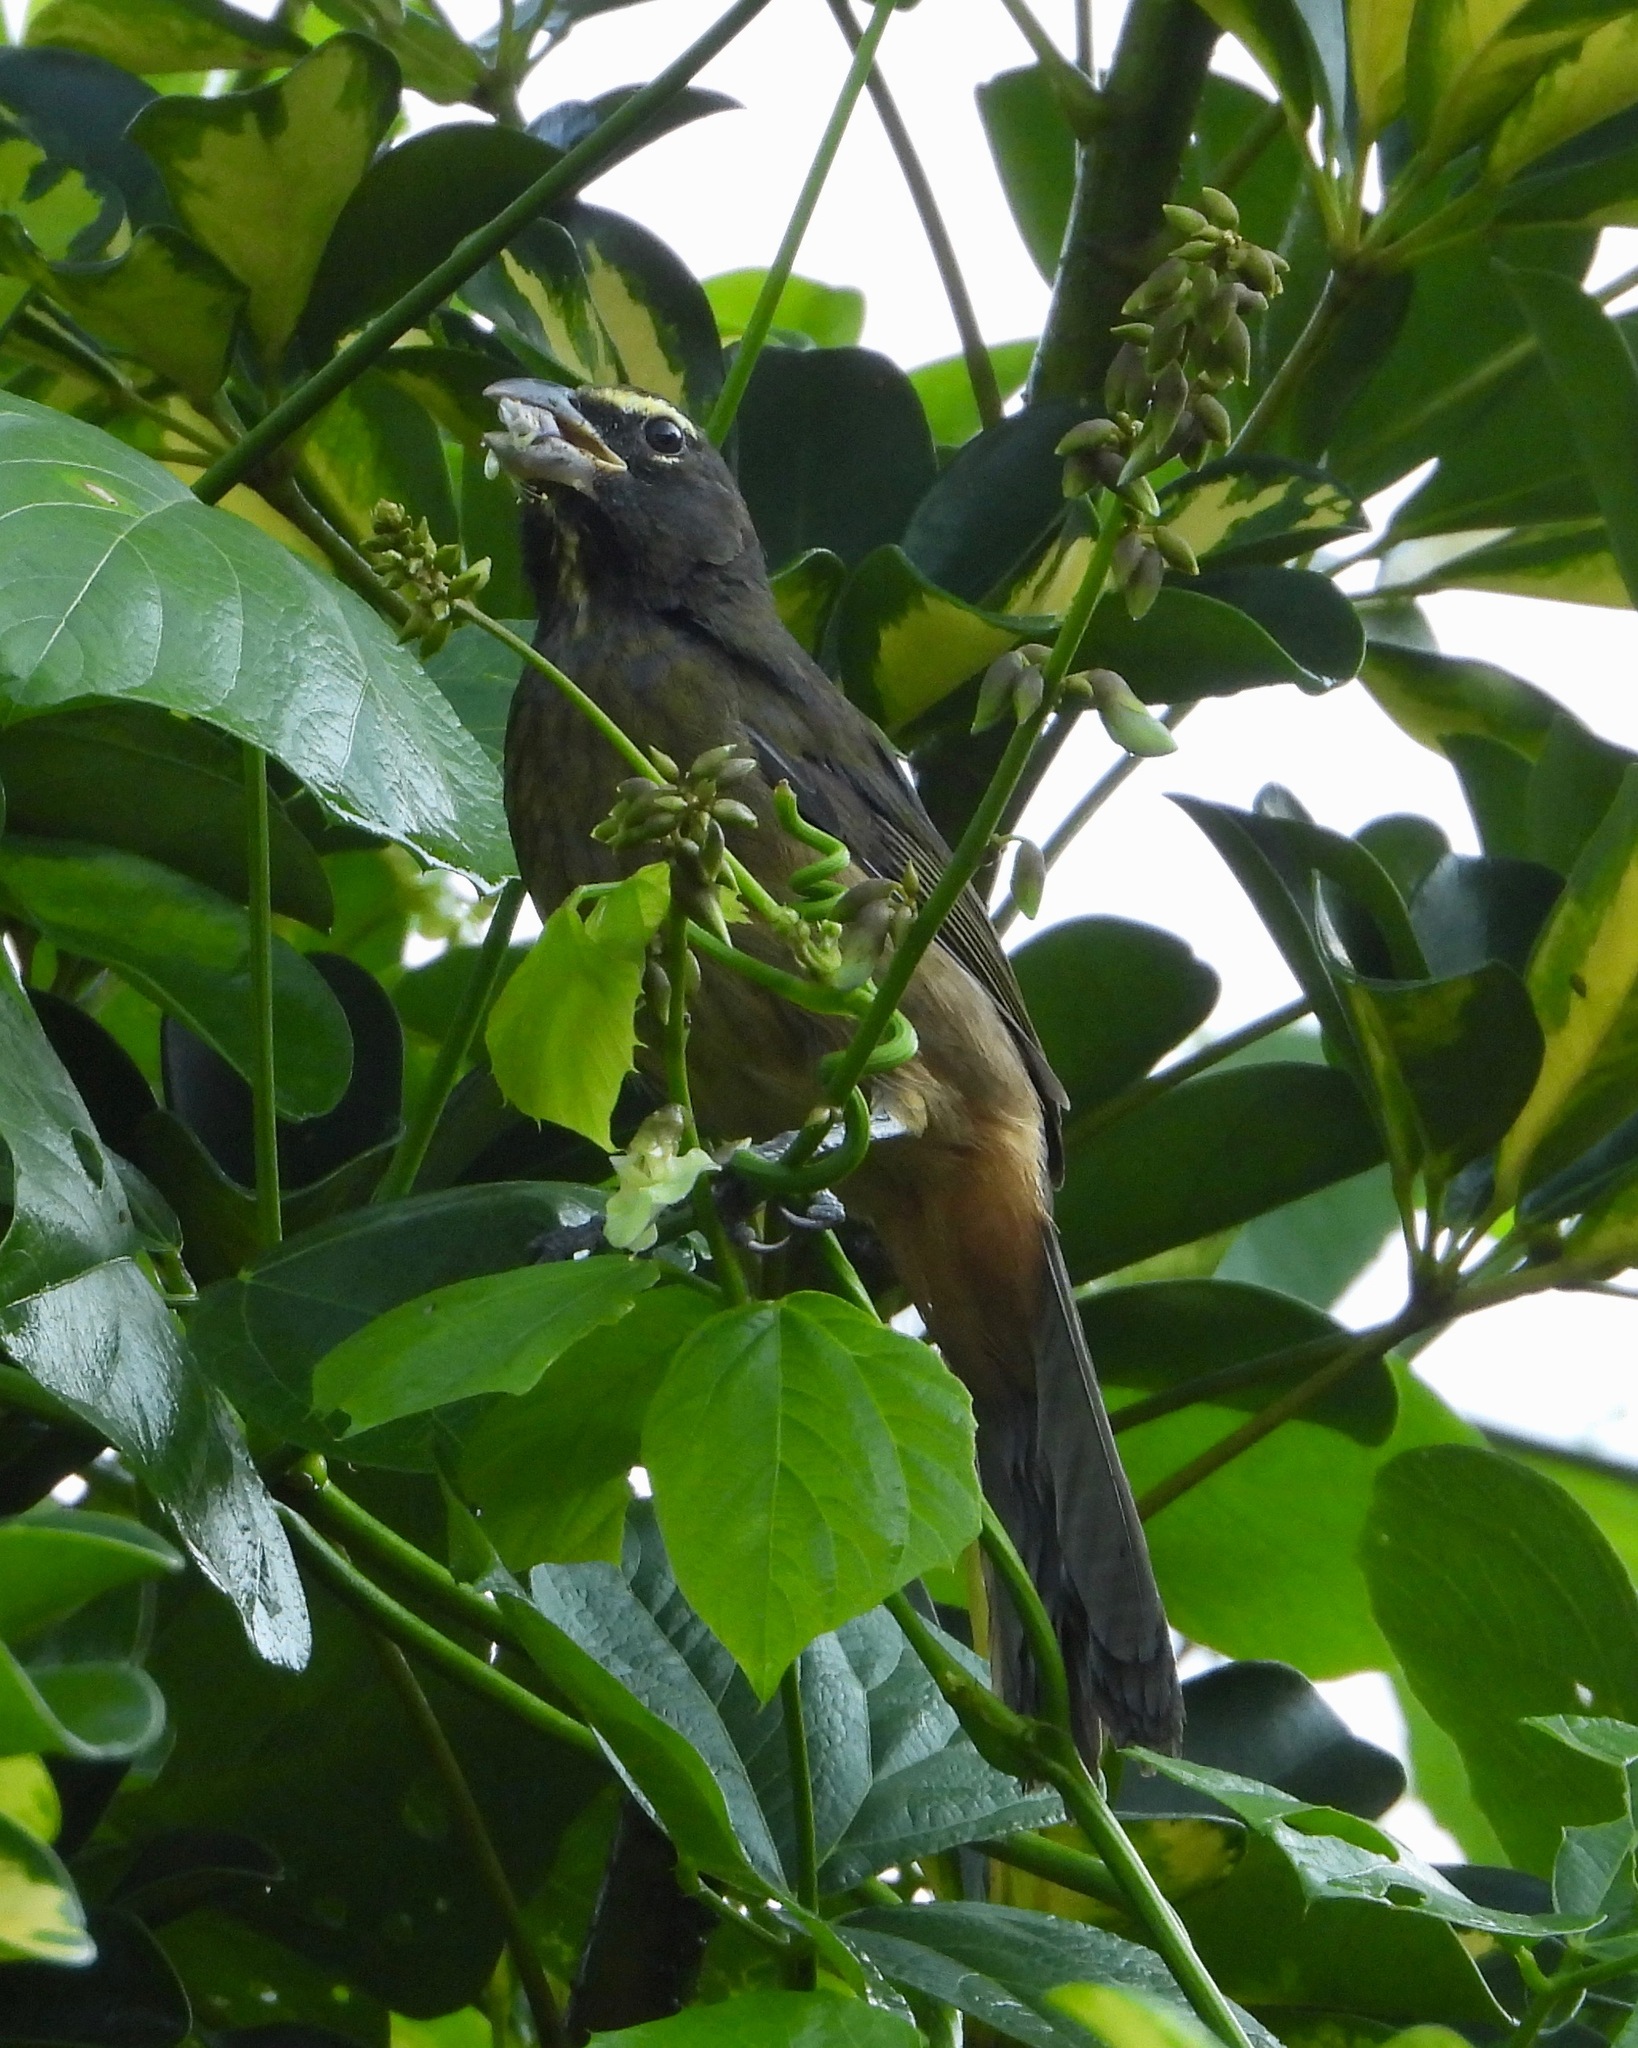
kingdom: Animalia
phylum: Chordata
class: Aves
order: Passeriformes
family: Thraupidae
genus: Saltator
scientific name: Saltator grandis
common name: Cinnamon-bellied saltator
